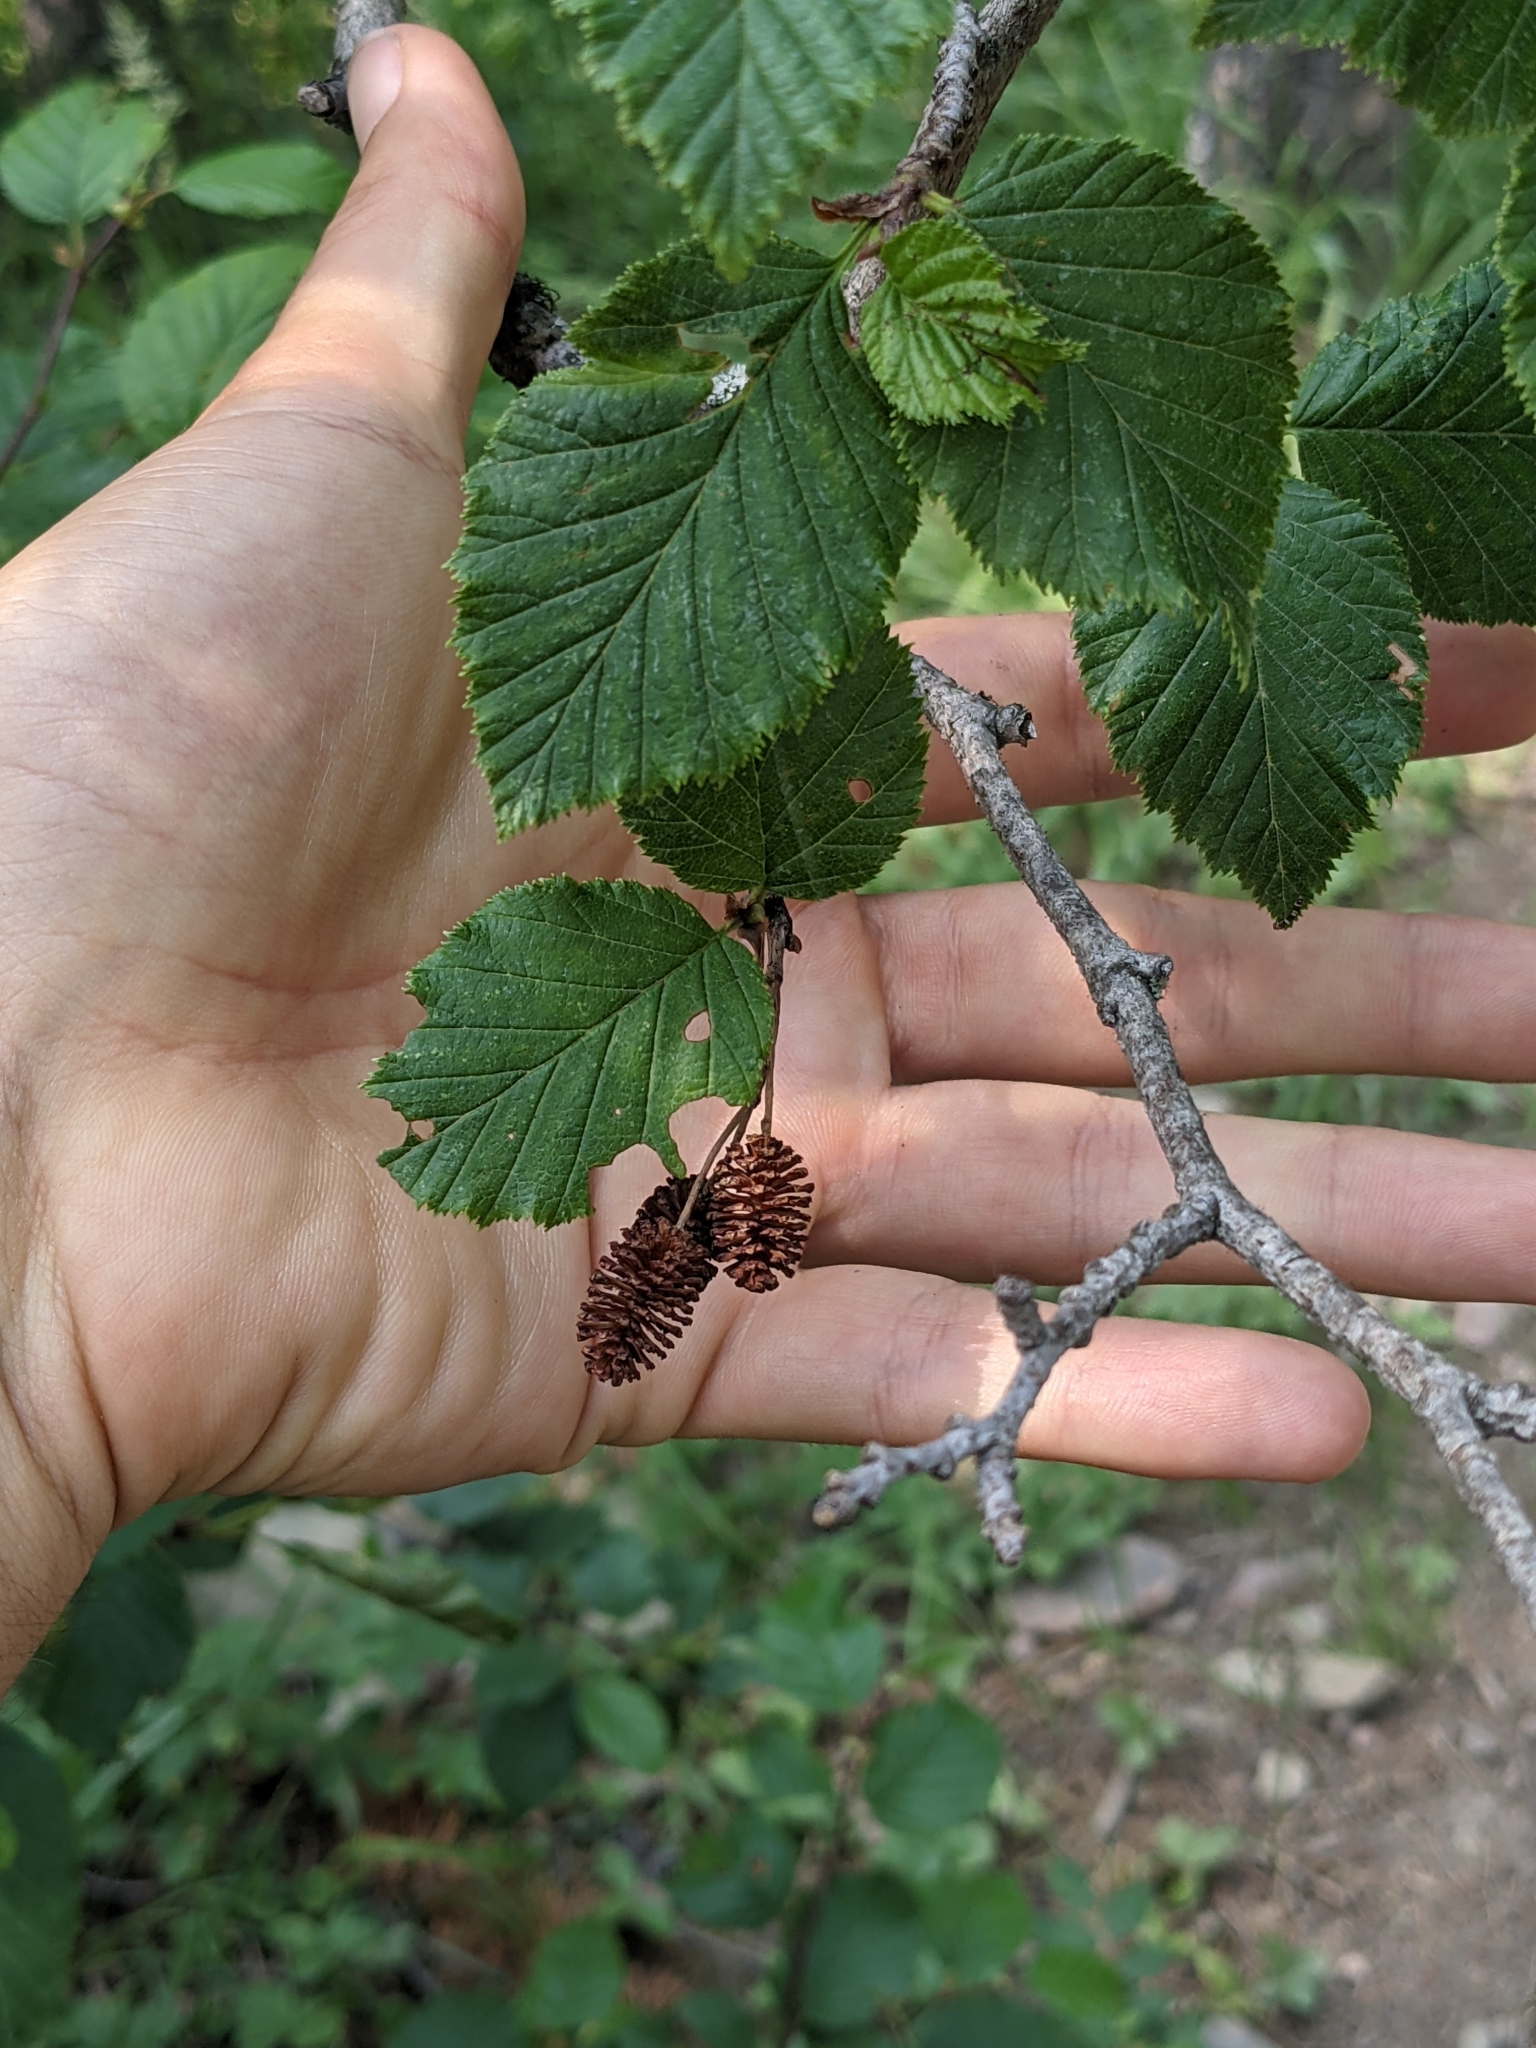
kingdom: Plantae
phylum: Tracheophyta
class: Magnoliopsida
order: Fagales
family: Betulaceae
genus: Alnus
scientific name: Alnus alnobetula
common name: Green alder
